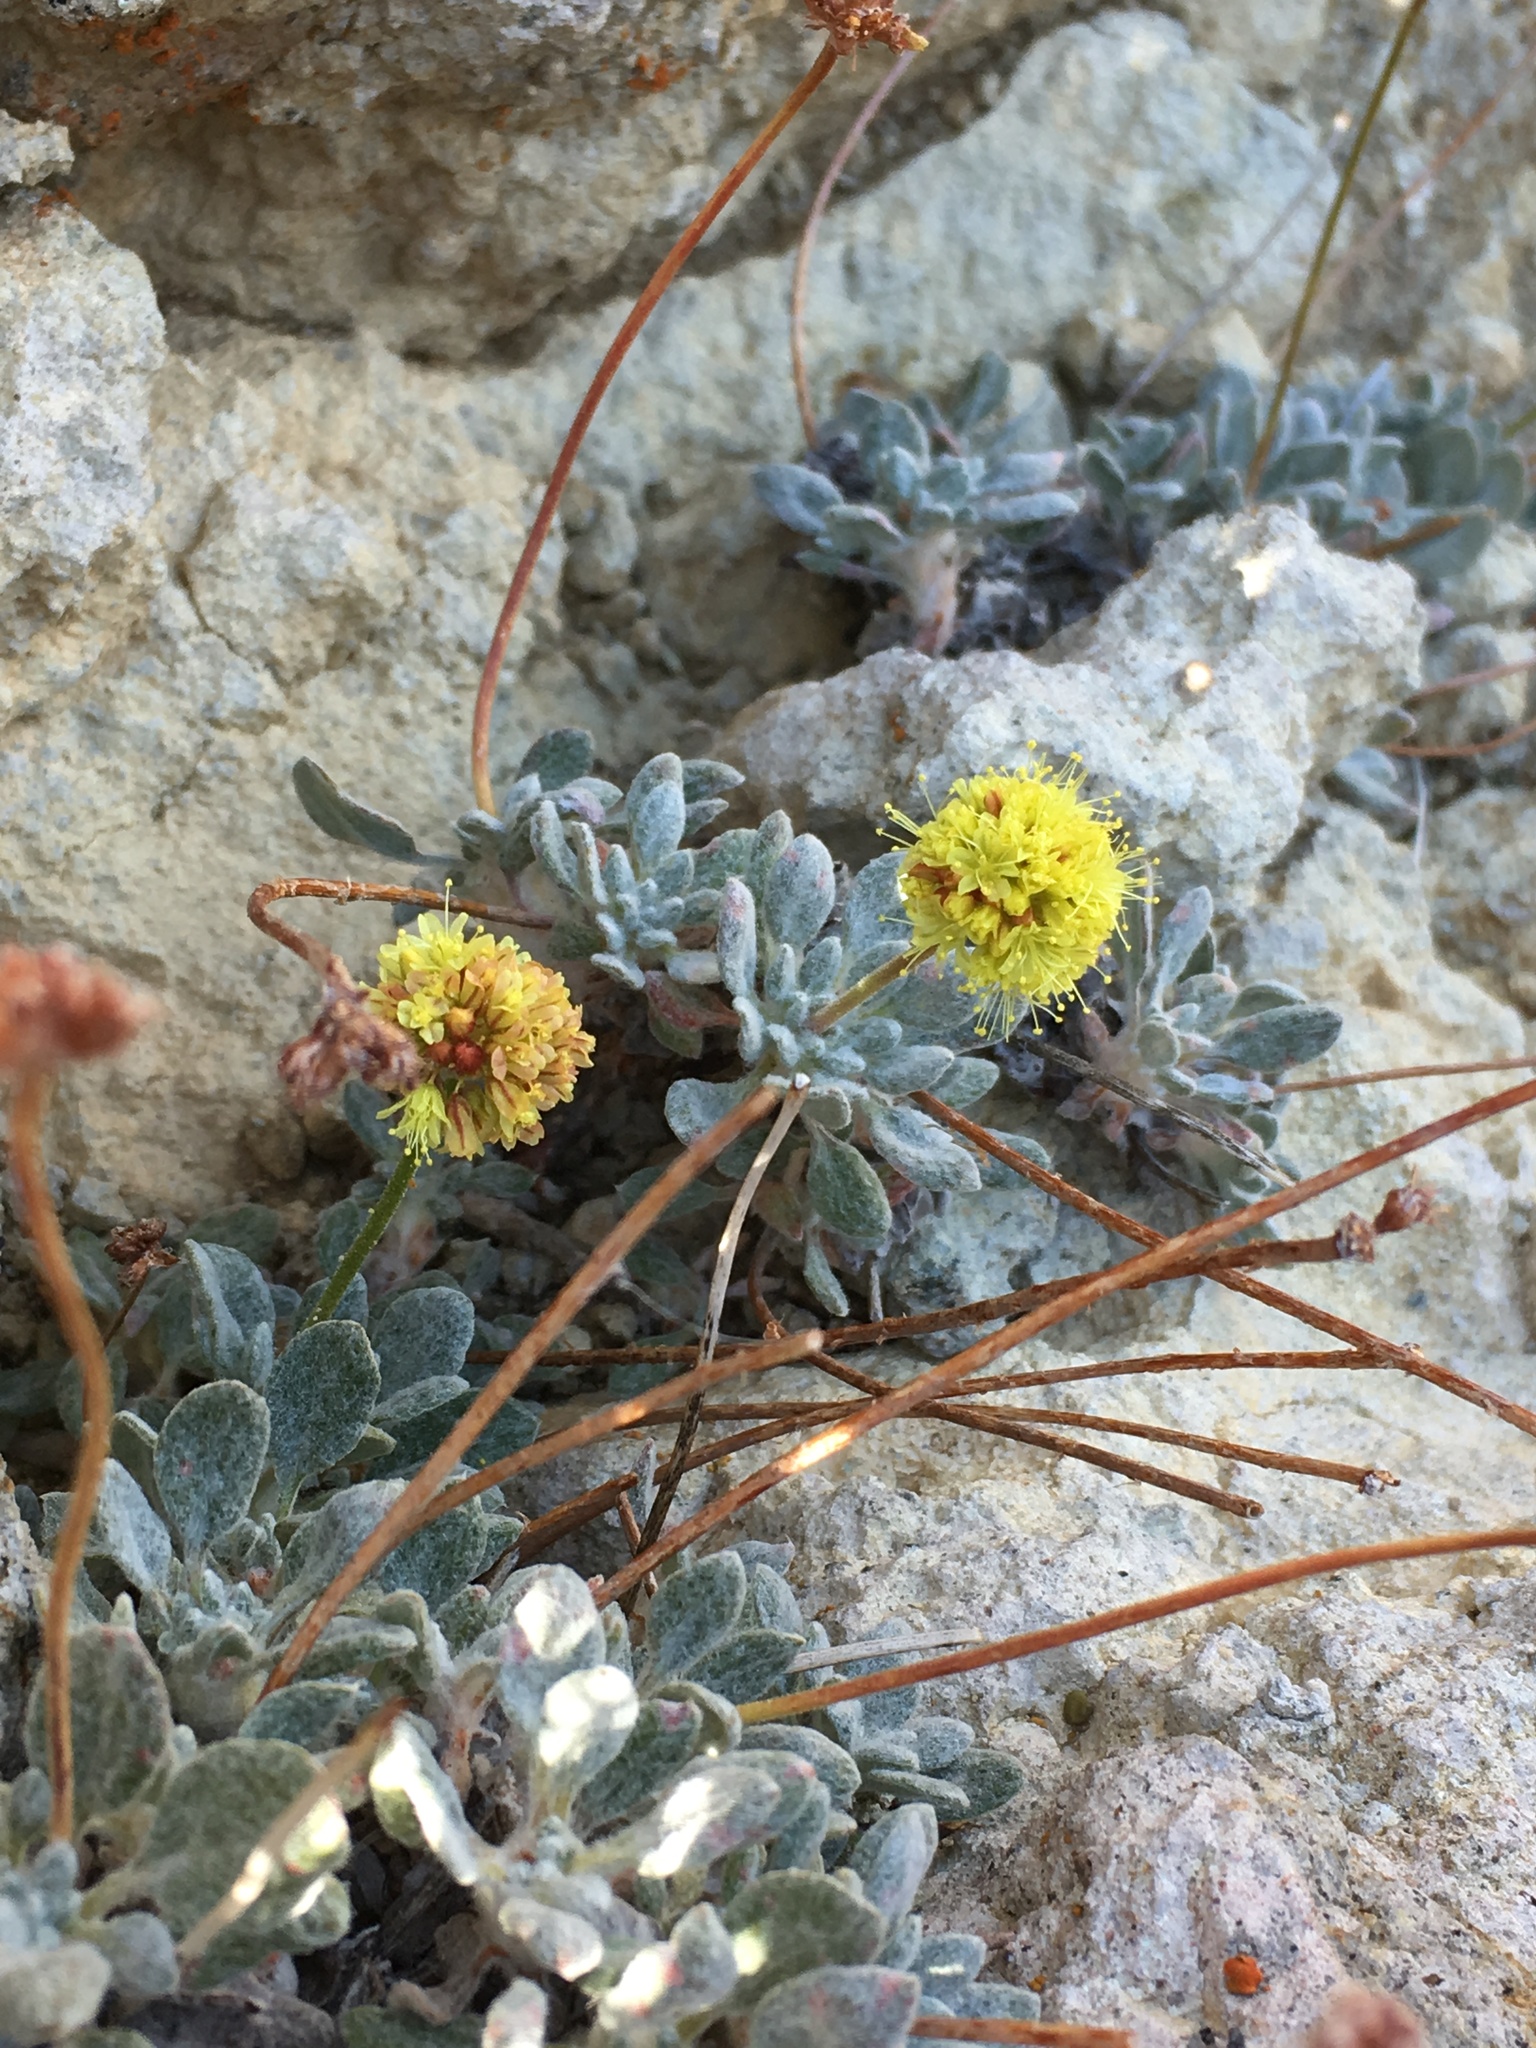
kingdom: Plantae
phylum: Tracheophyta
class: Magnoliopsida
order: Caryophyllales
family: Polygonaceae
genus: Eriogonum
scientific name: Eriogonum rosense
